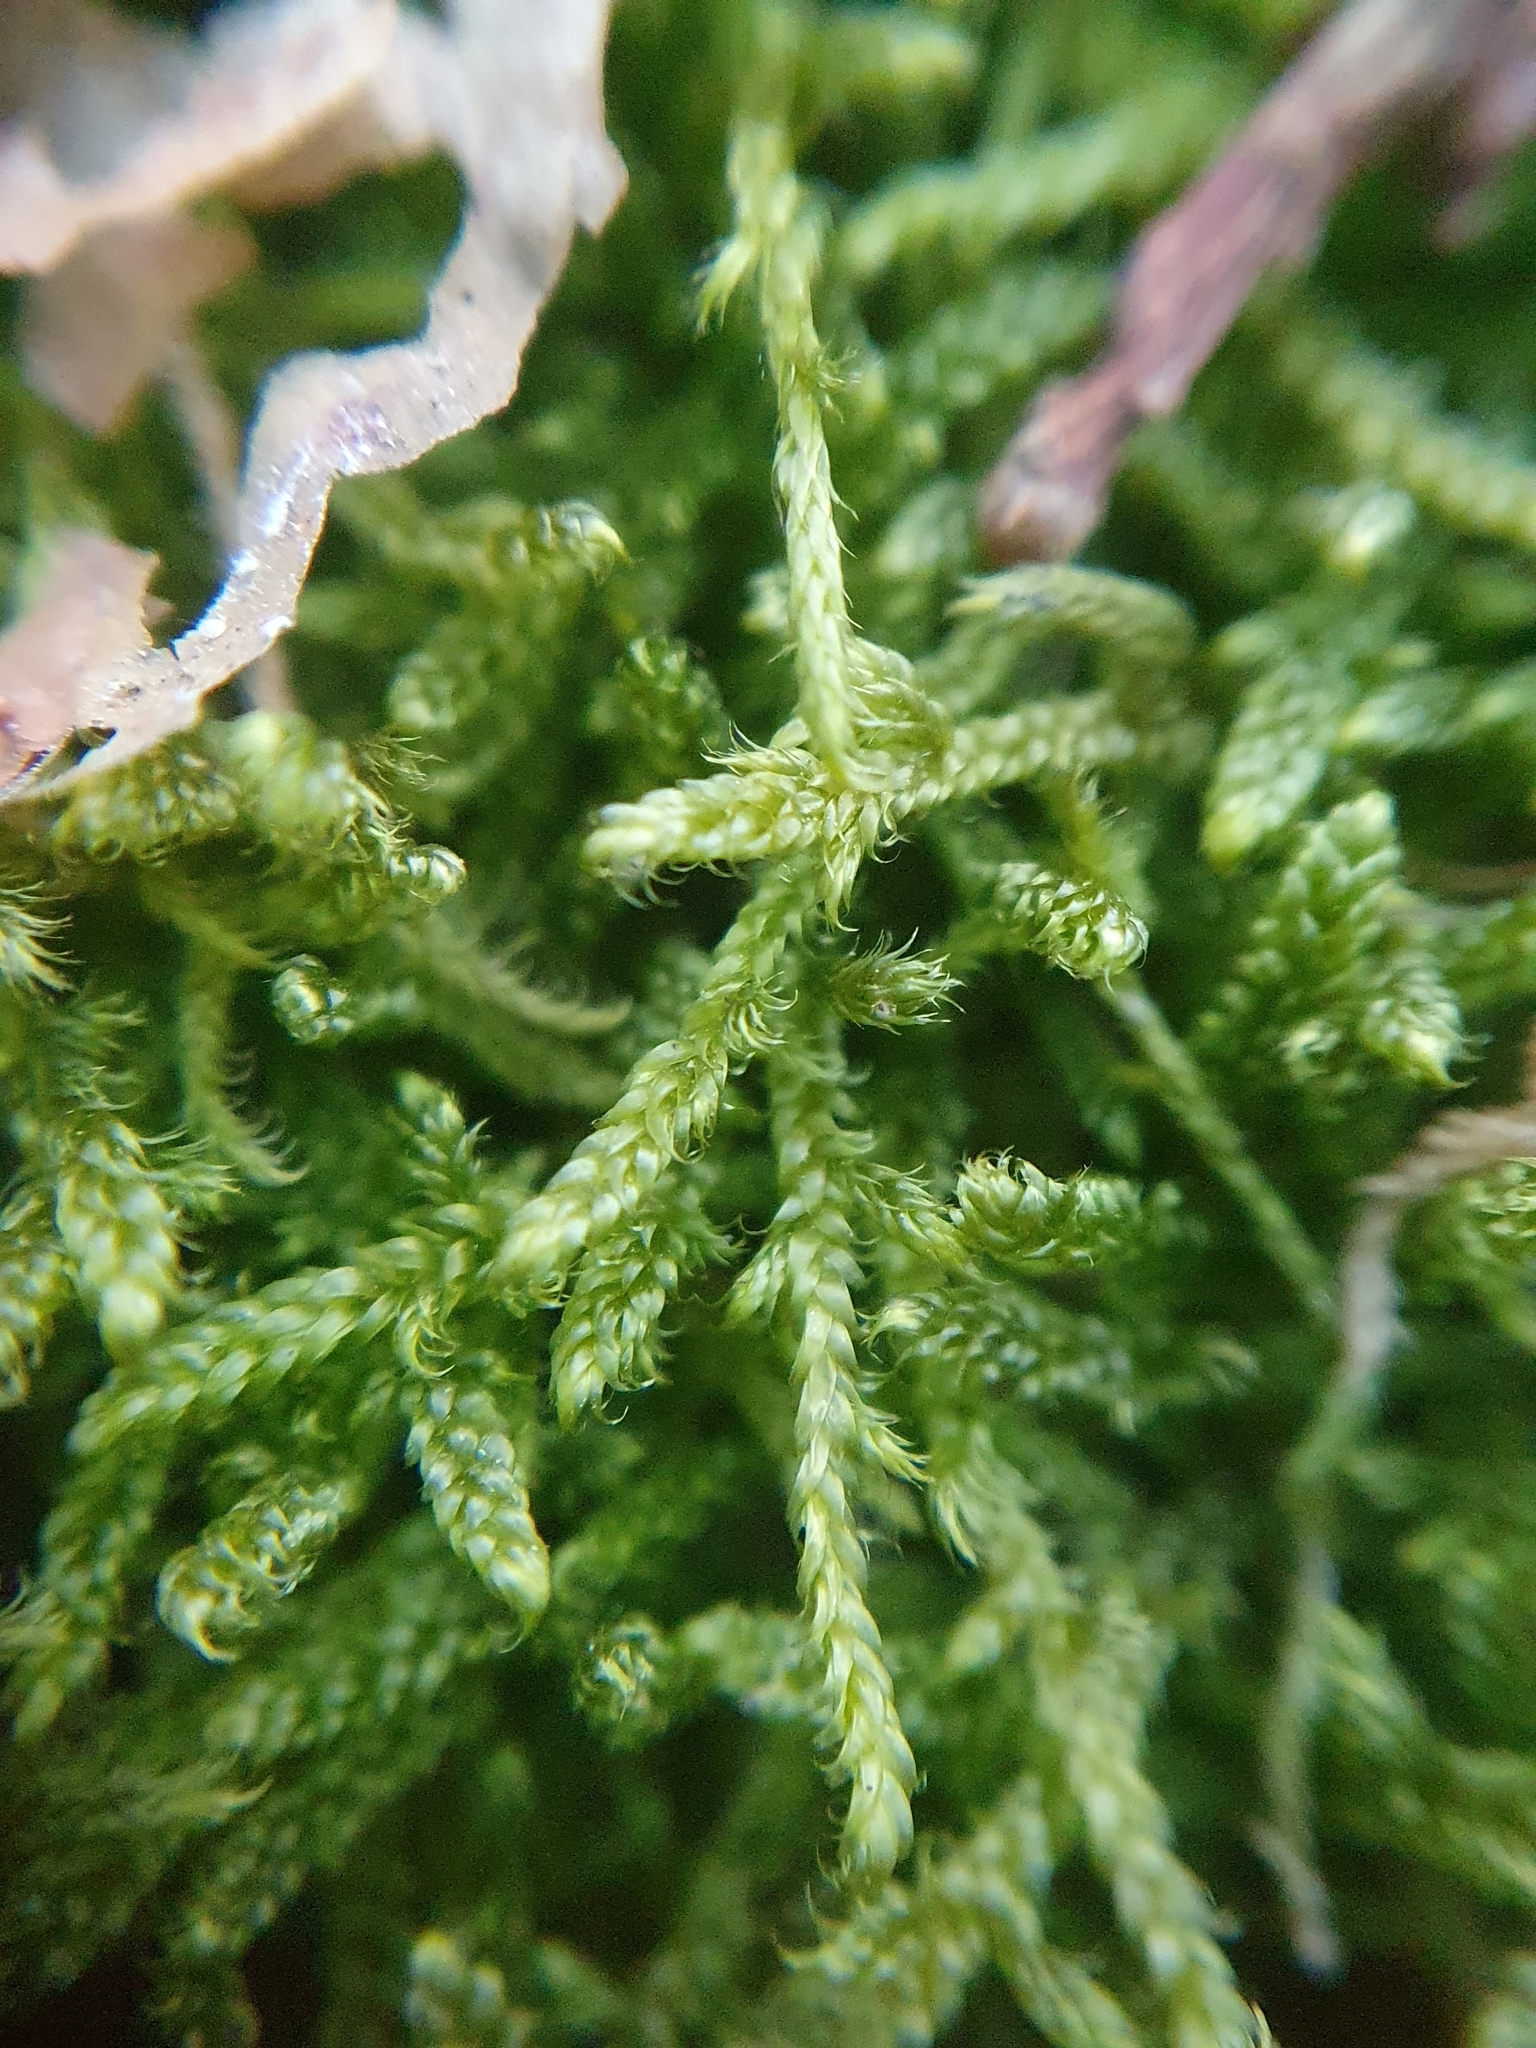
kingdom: Plantae
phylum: Bryophyta
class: Bryopsida
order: Hypnales
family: Hypnaceae
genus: Hypnum
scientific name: Hypnum cupressiforme
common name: Cypress-leaved plait-moss
